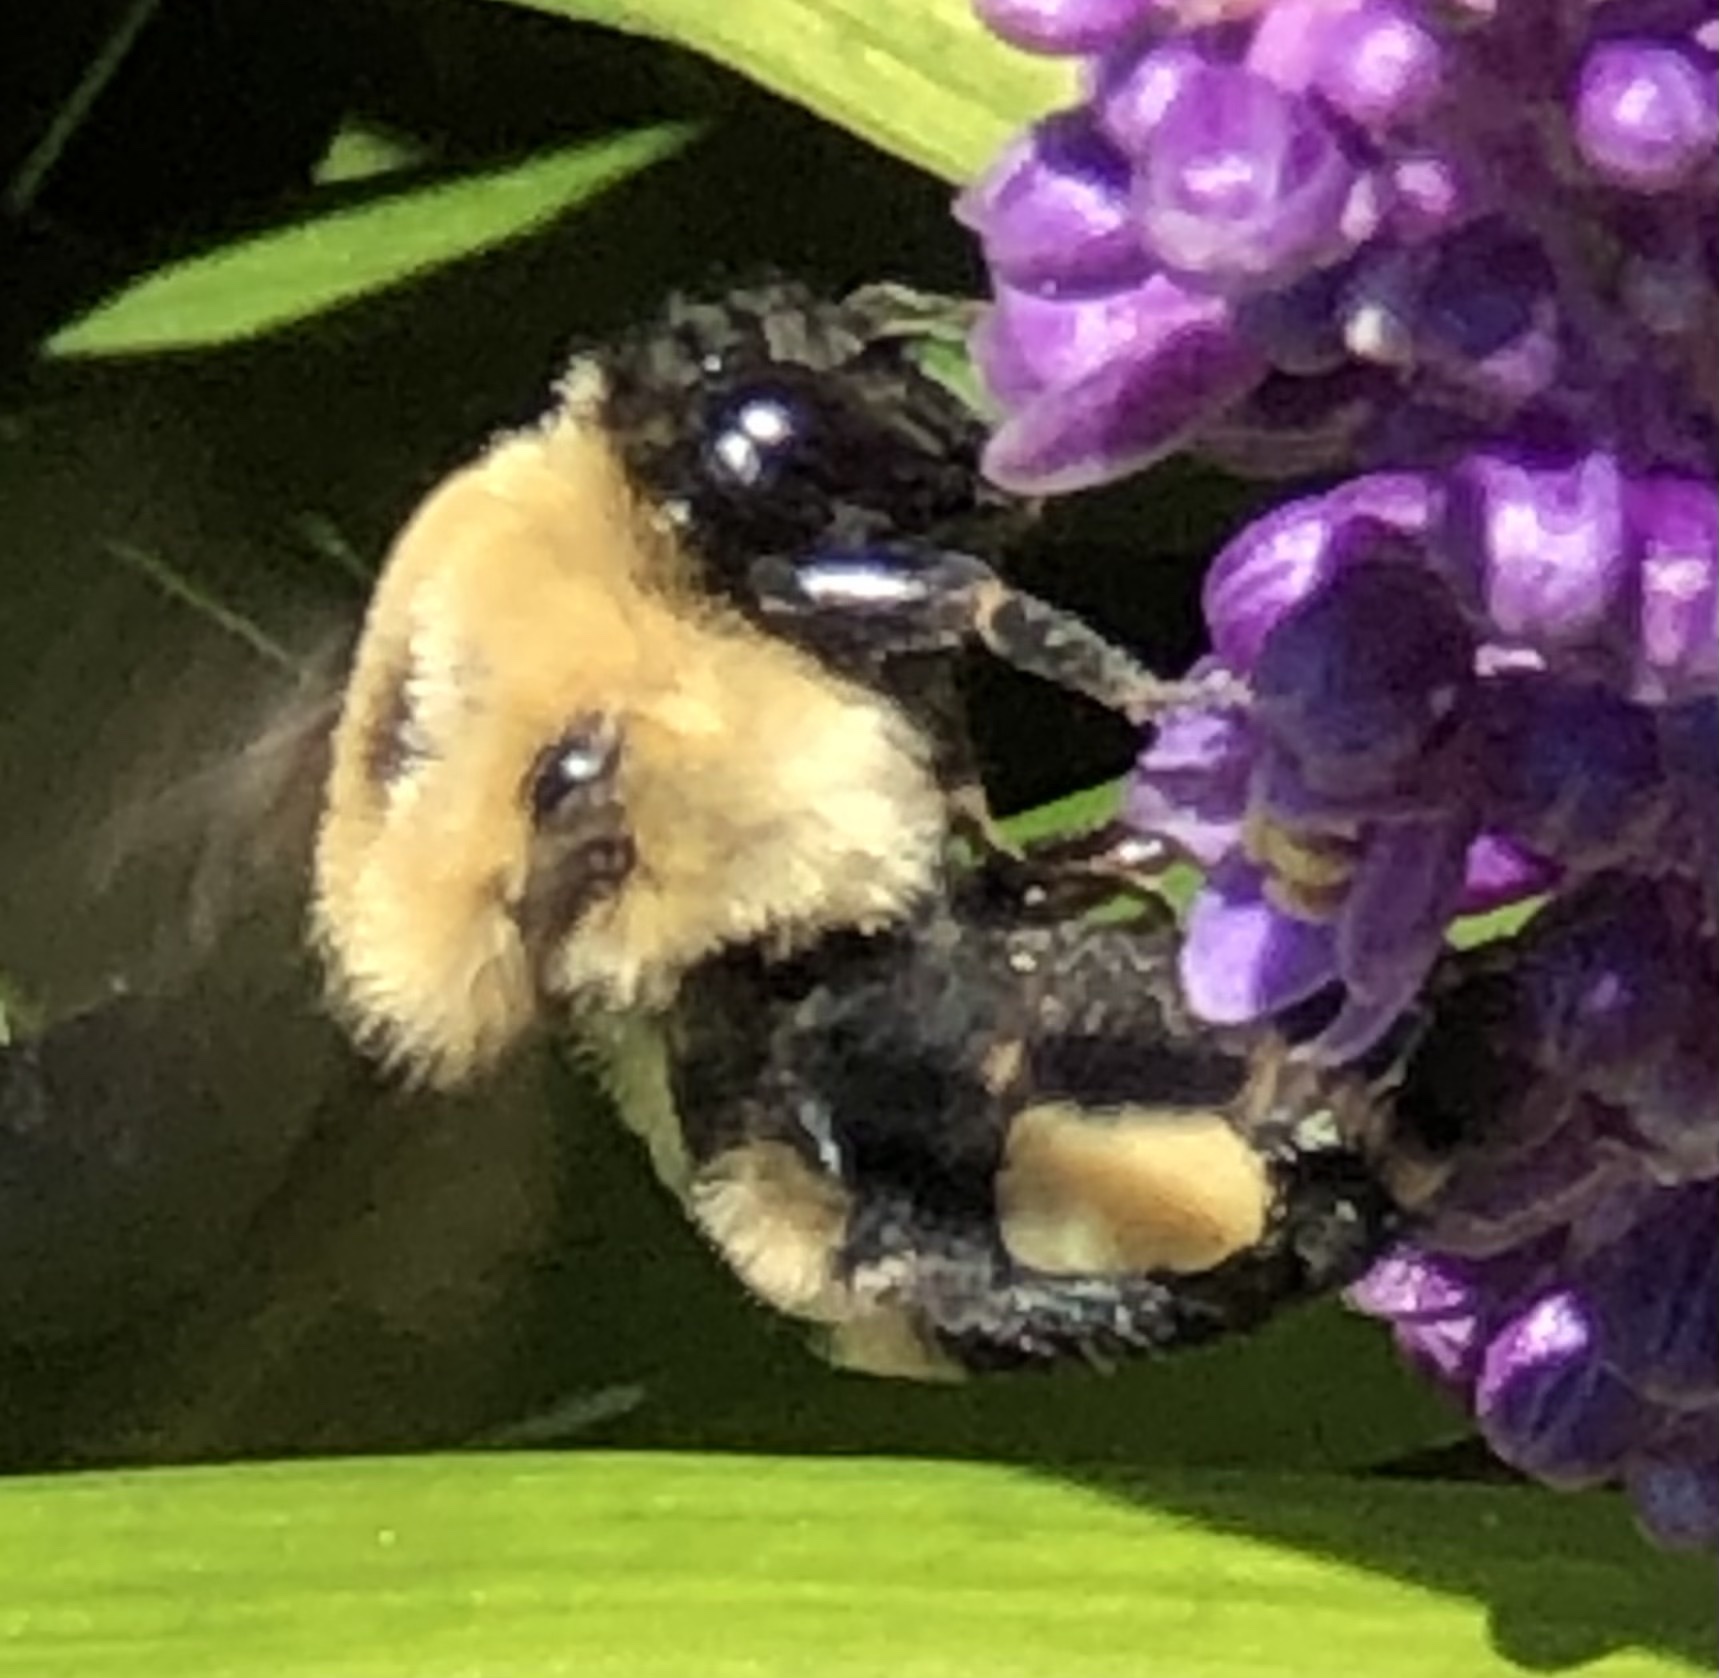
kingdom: Animalia
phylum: Arthropoda
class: Insecta
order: Hymenoptera
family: Apidae
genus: Bombus
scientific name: Bombus griseocollis
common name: Brown-belted bumble bee
